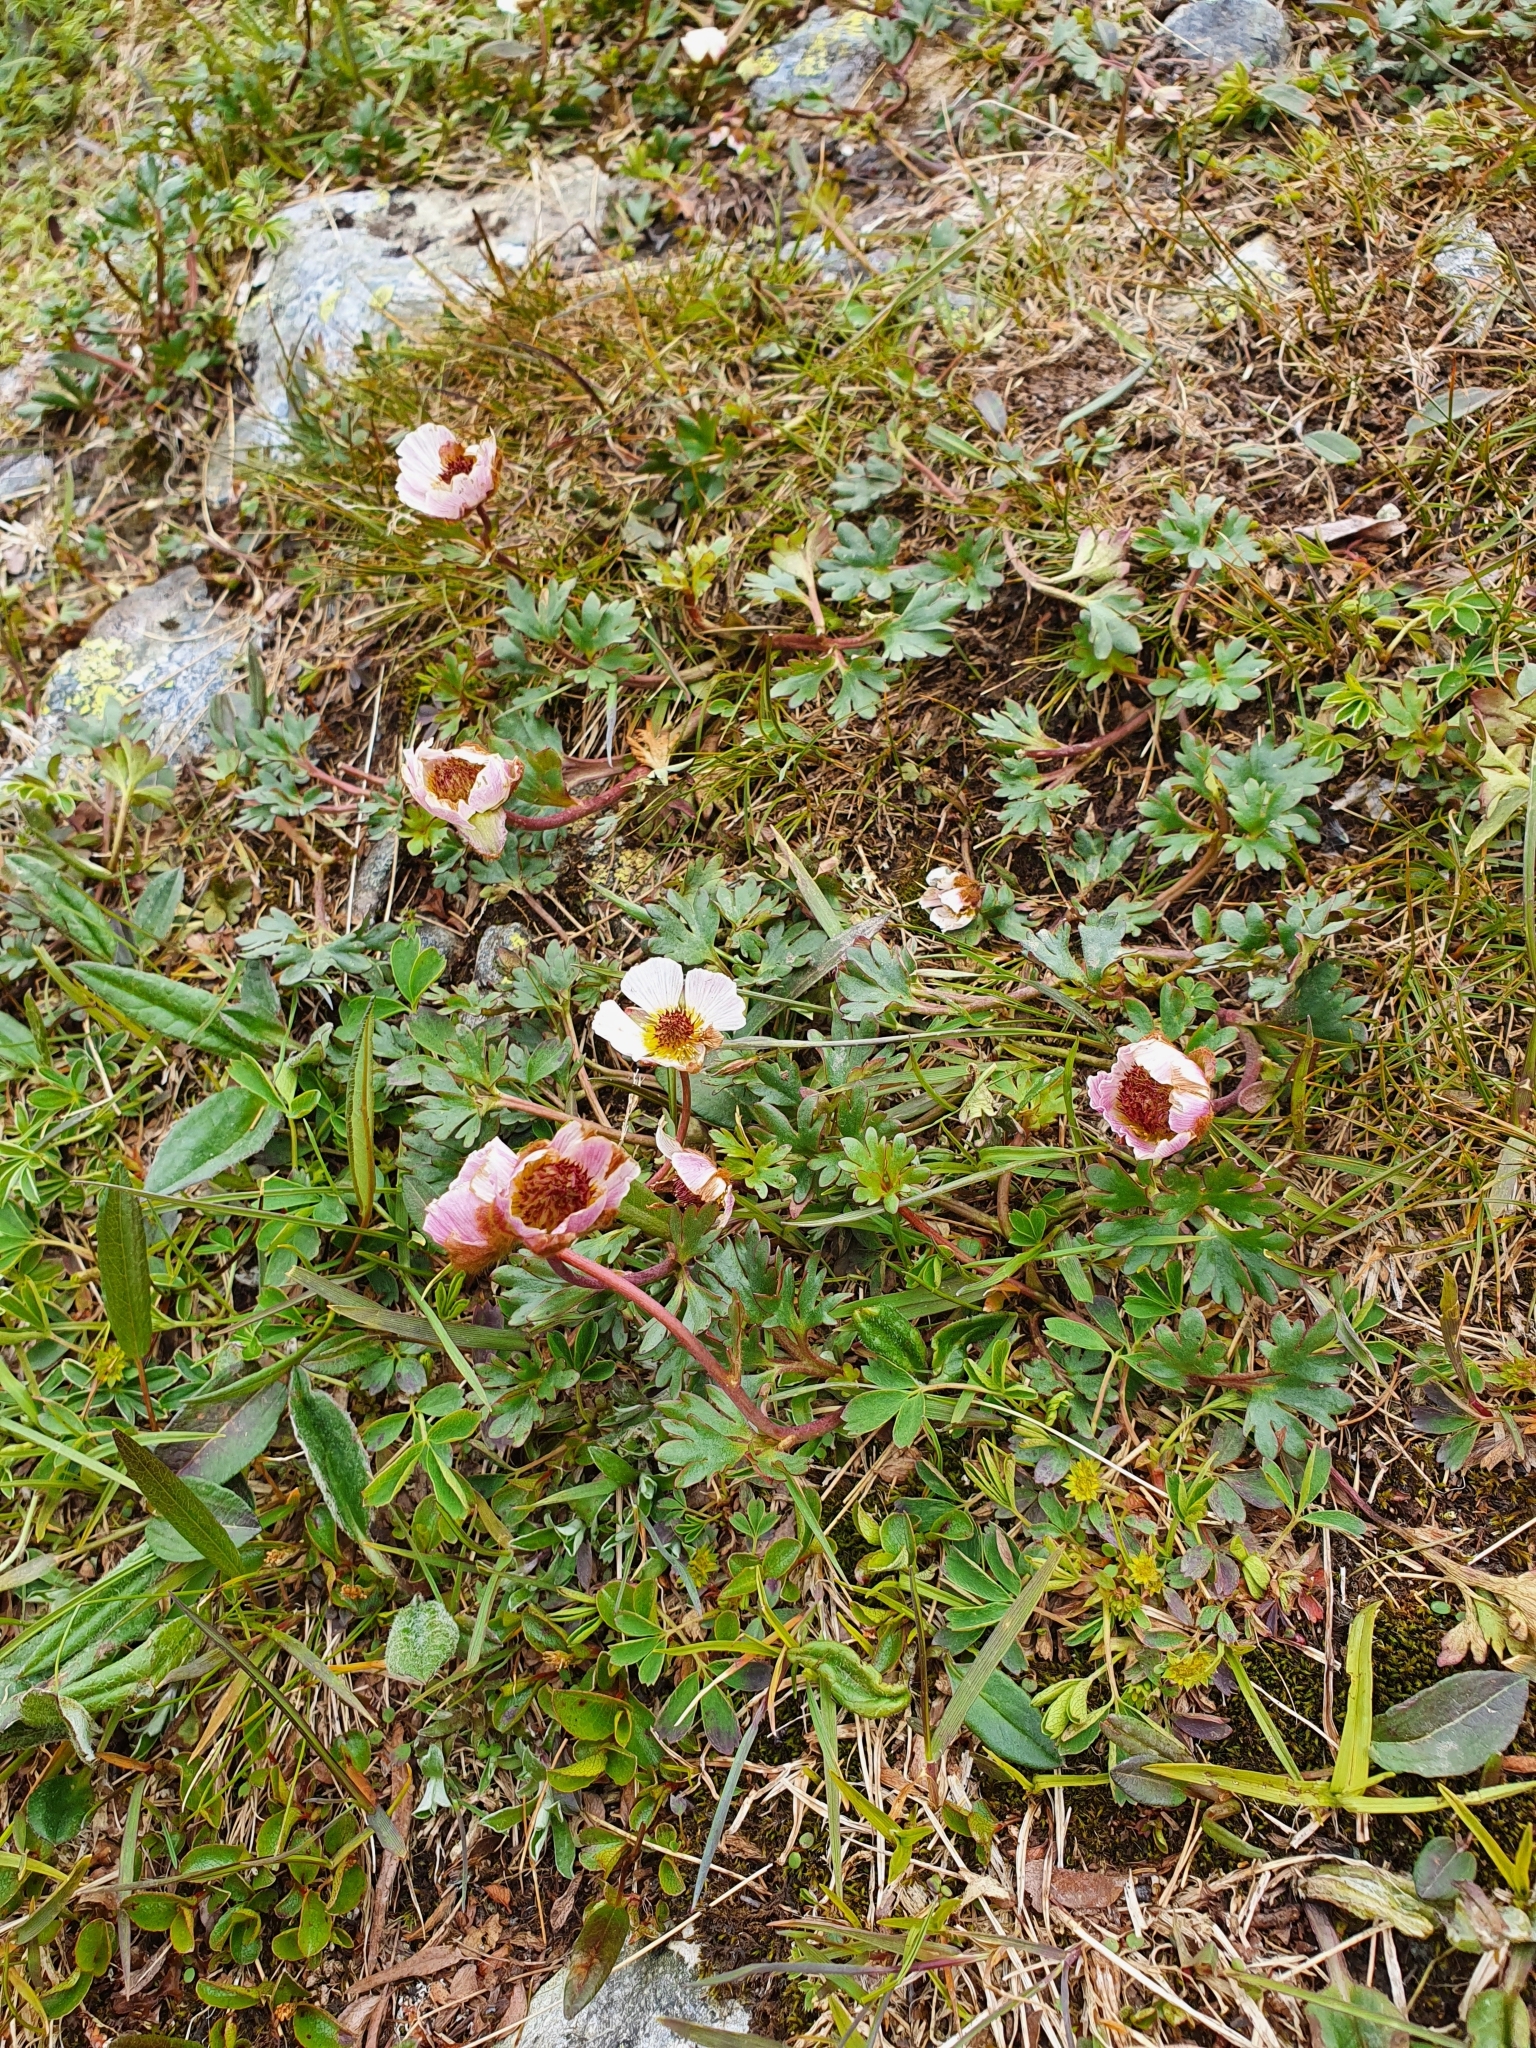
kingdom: Plantae
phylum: Tracheophyta
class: Magnoliopsida
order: Ranunculales
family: Ranunculaceae
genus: Ranunculus
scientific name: Ranunculus glacialis
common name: Glacier buttercup
